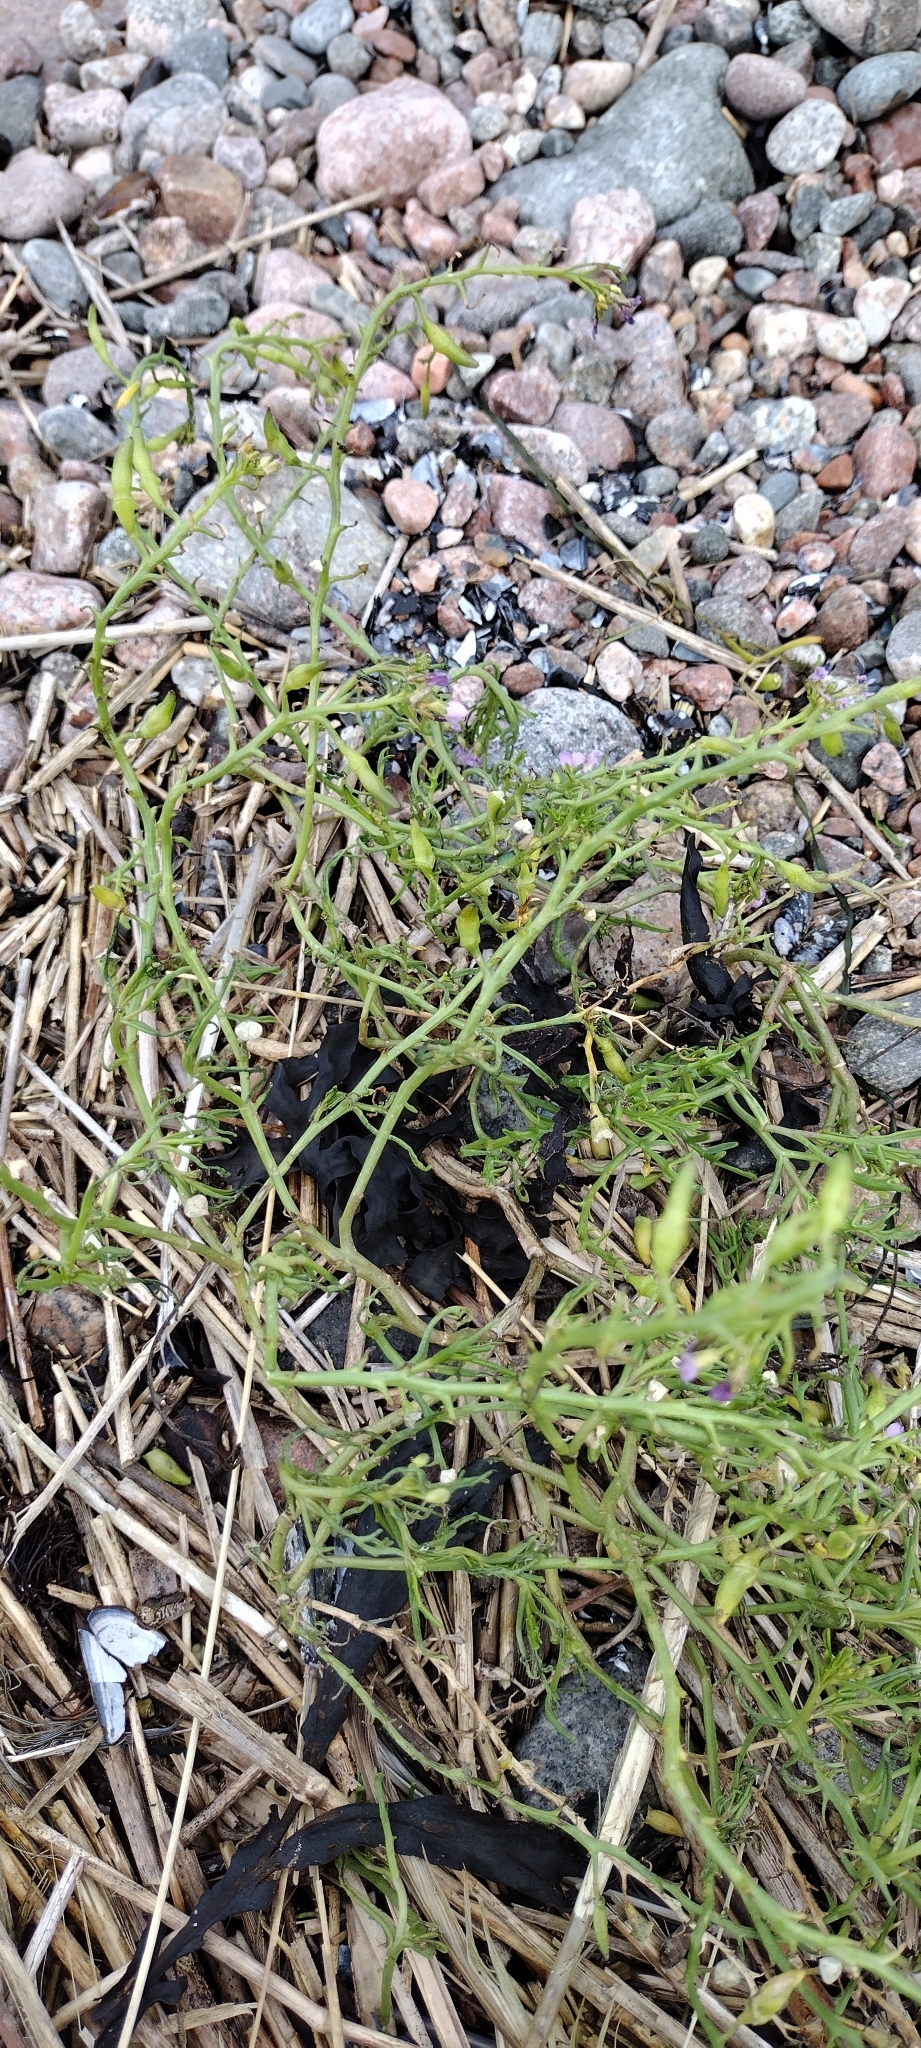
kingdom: Plantae
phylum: Tracheophyta
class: Magnoliopsida
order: Brassicales
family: Brassicaceae
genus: Cakile
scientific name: Cakile maritima
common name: Sea rocket
